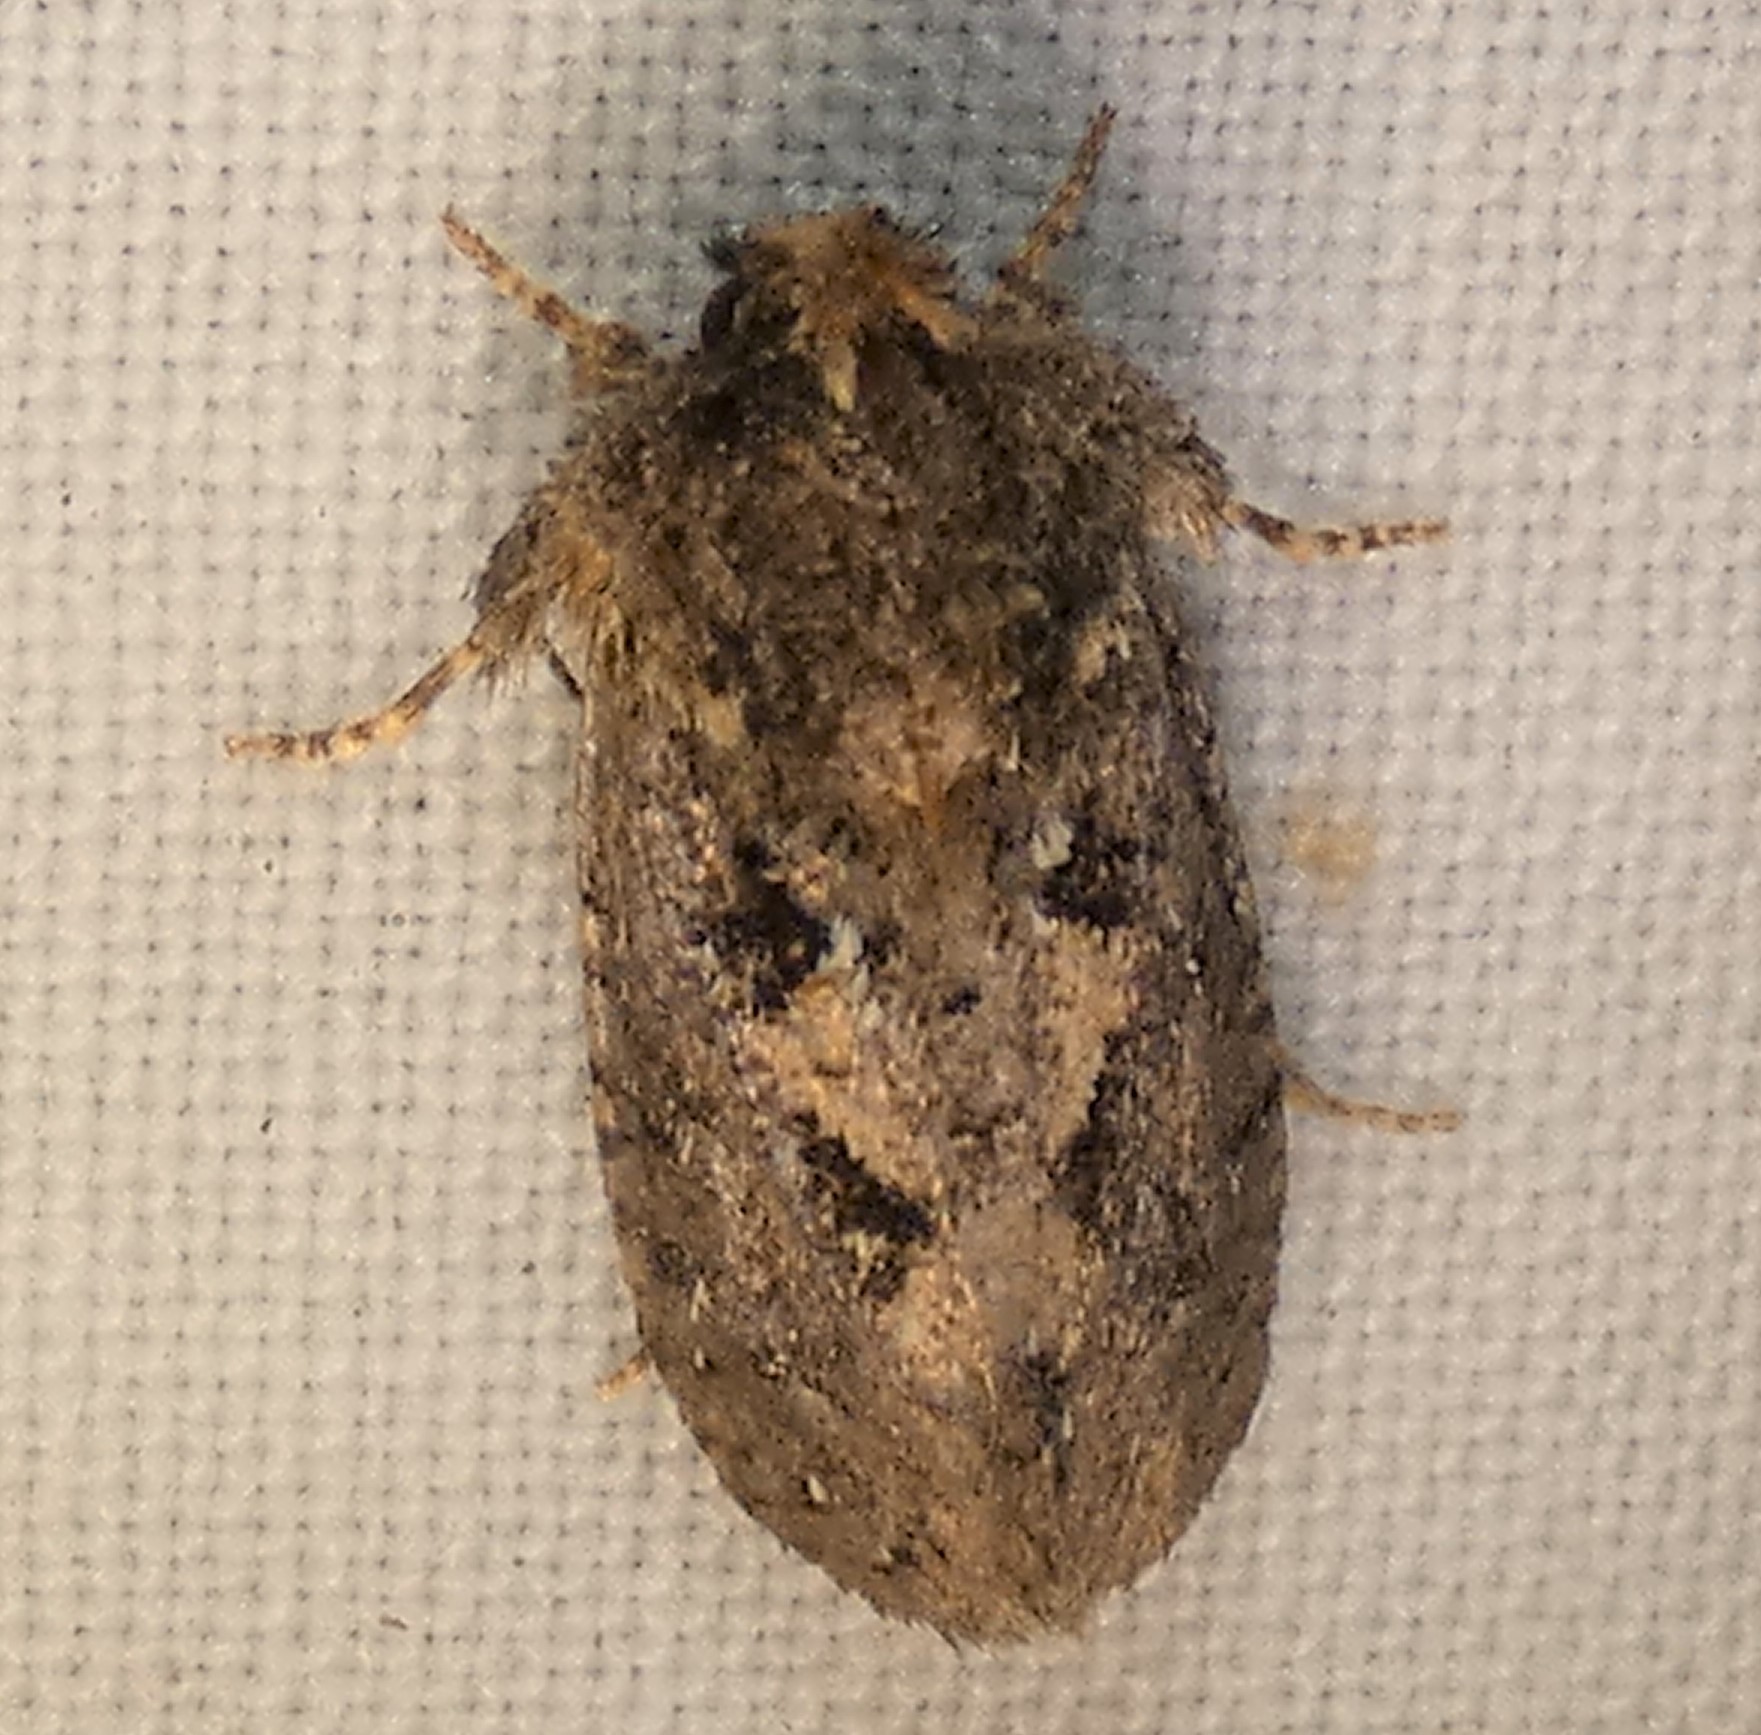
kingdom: Animalia
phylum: Arthropoda
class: Insecta
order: Lepidoptera
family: Tineidae
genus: Acrolophus
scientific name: Acrolophus arcanella
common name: Arcane grass tubeworm moth
